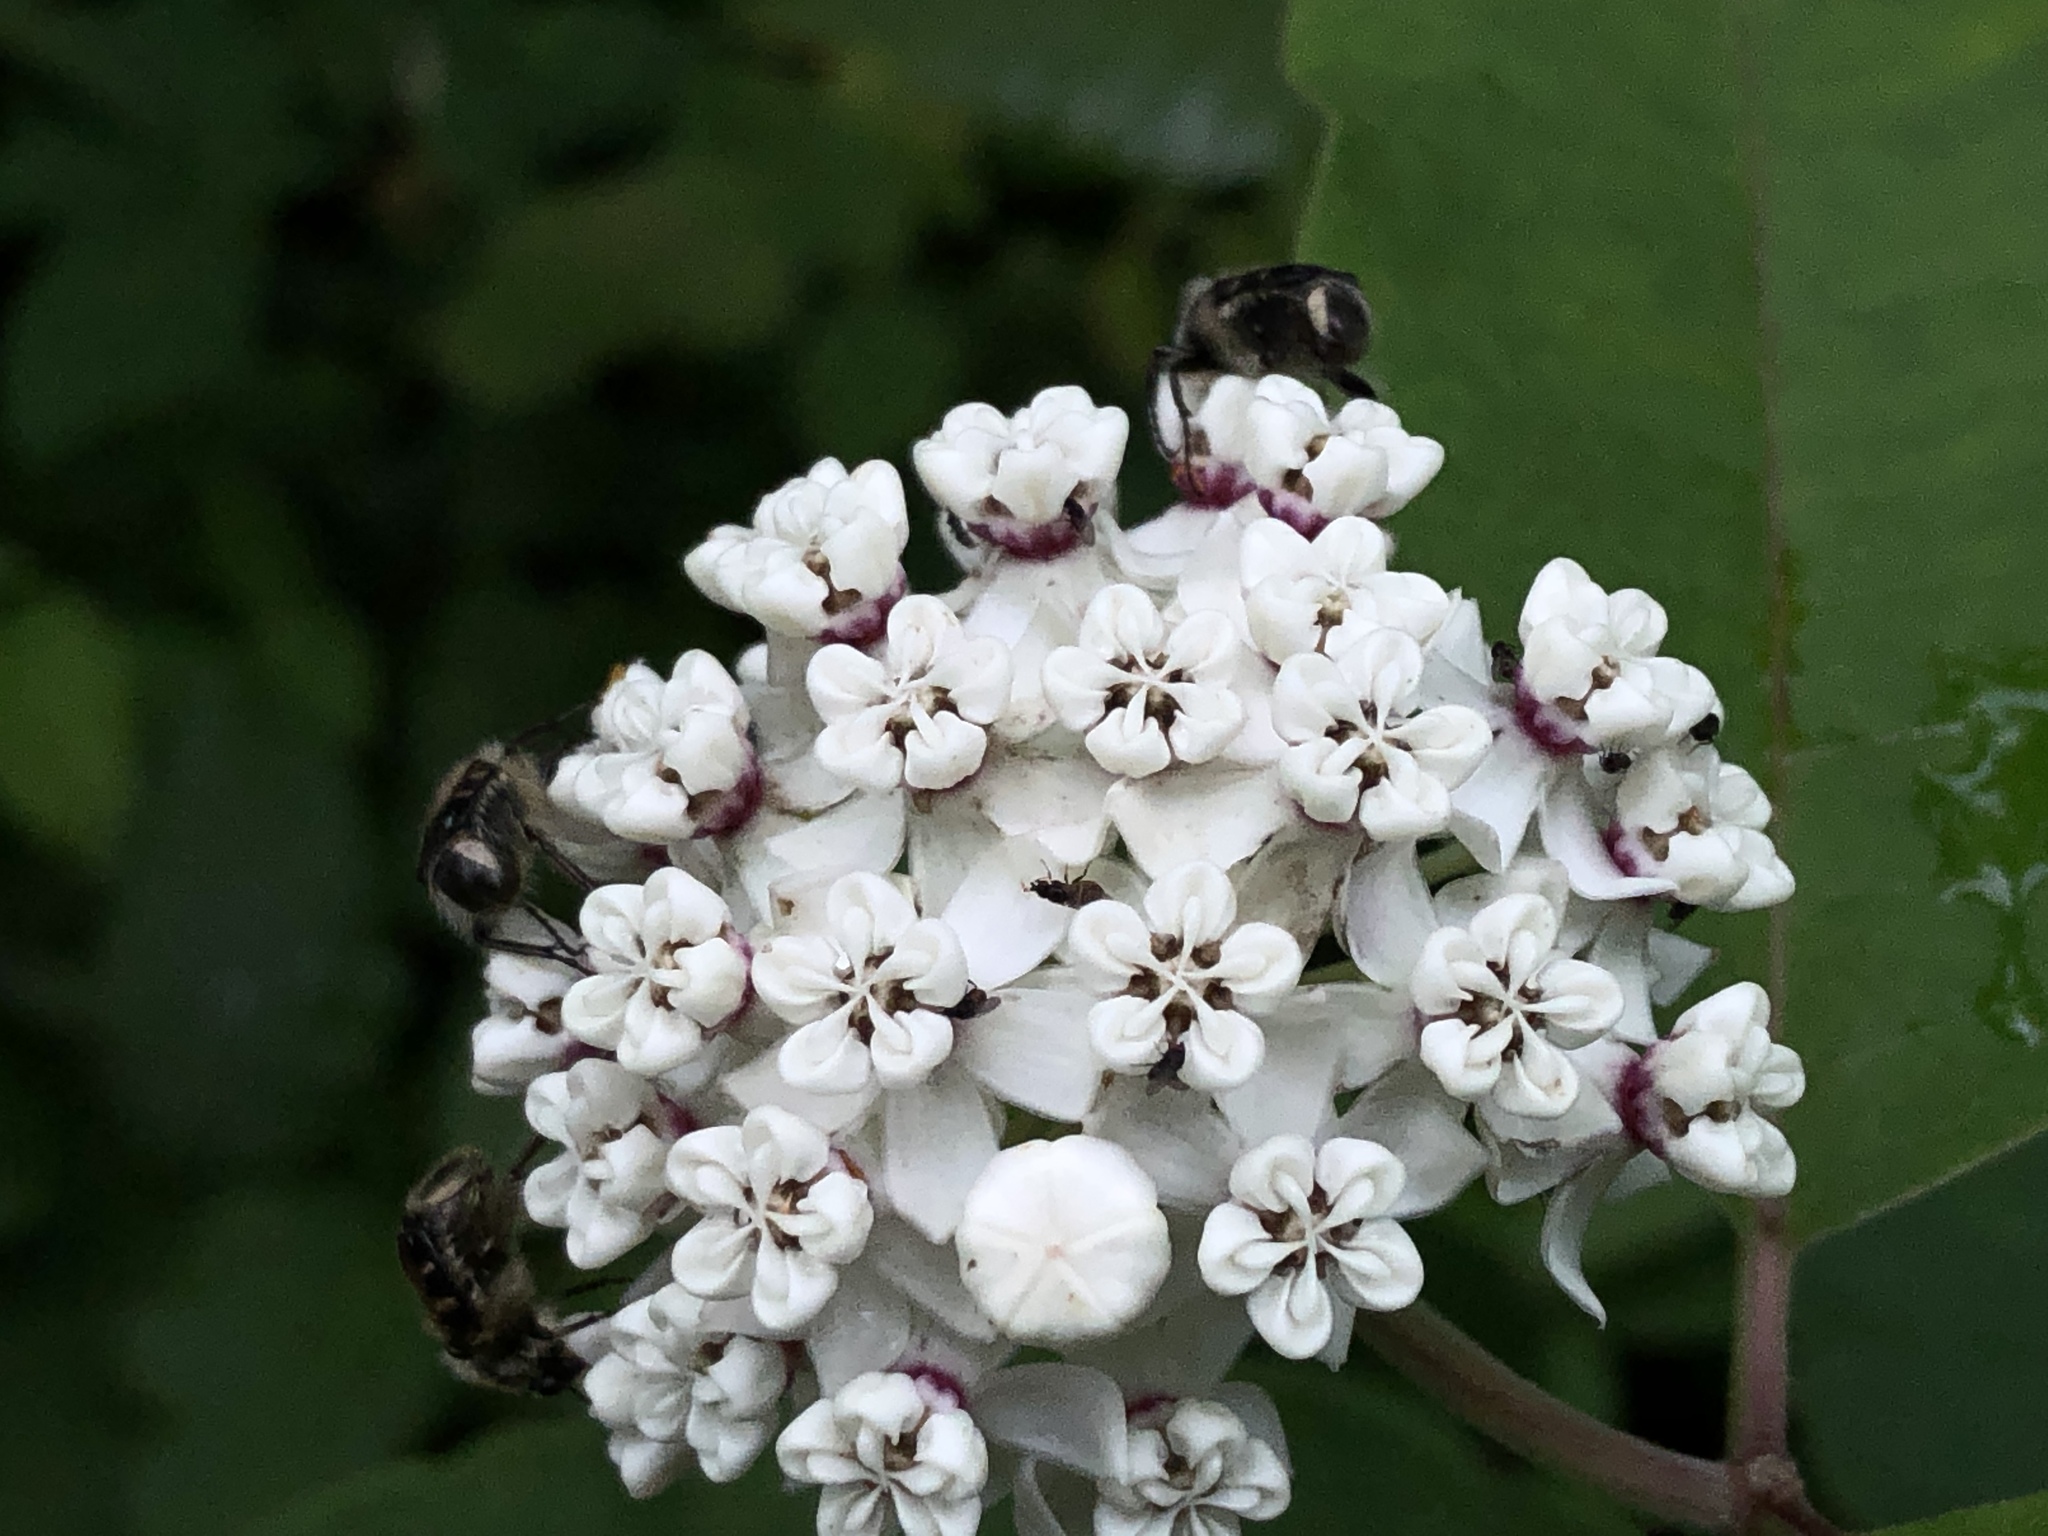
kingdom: Plantae
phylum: Tracheophyta
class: Magnoliopsida
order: Gentianales
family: Apocynaceae
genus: Asclepias
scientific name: Asclepias variegata
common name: Variegated milkweed
